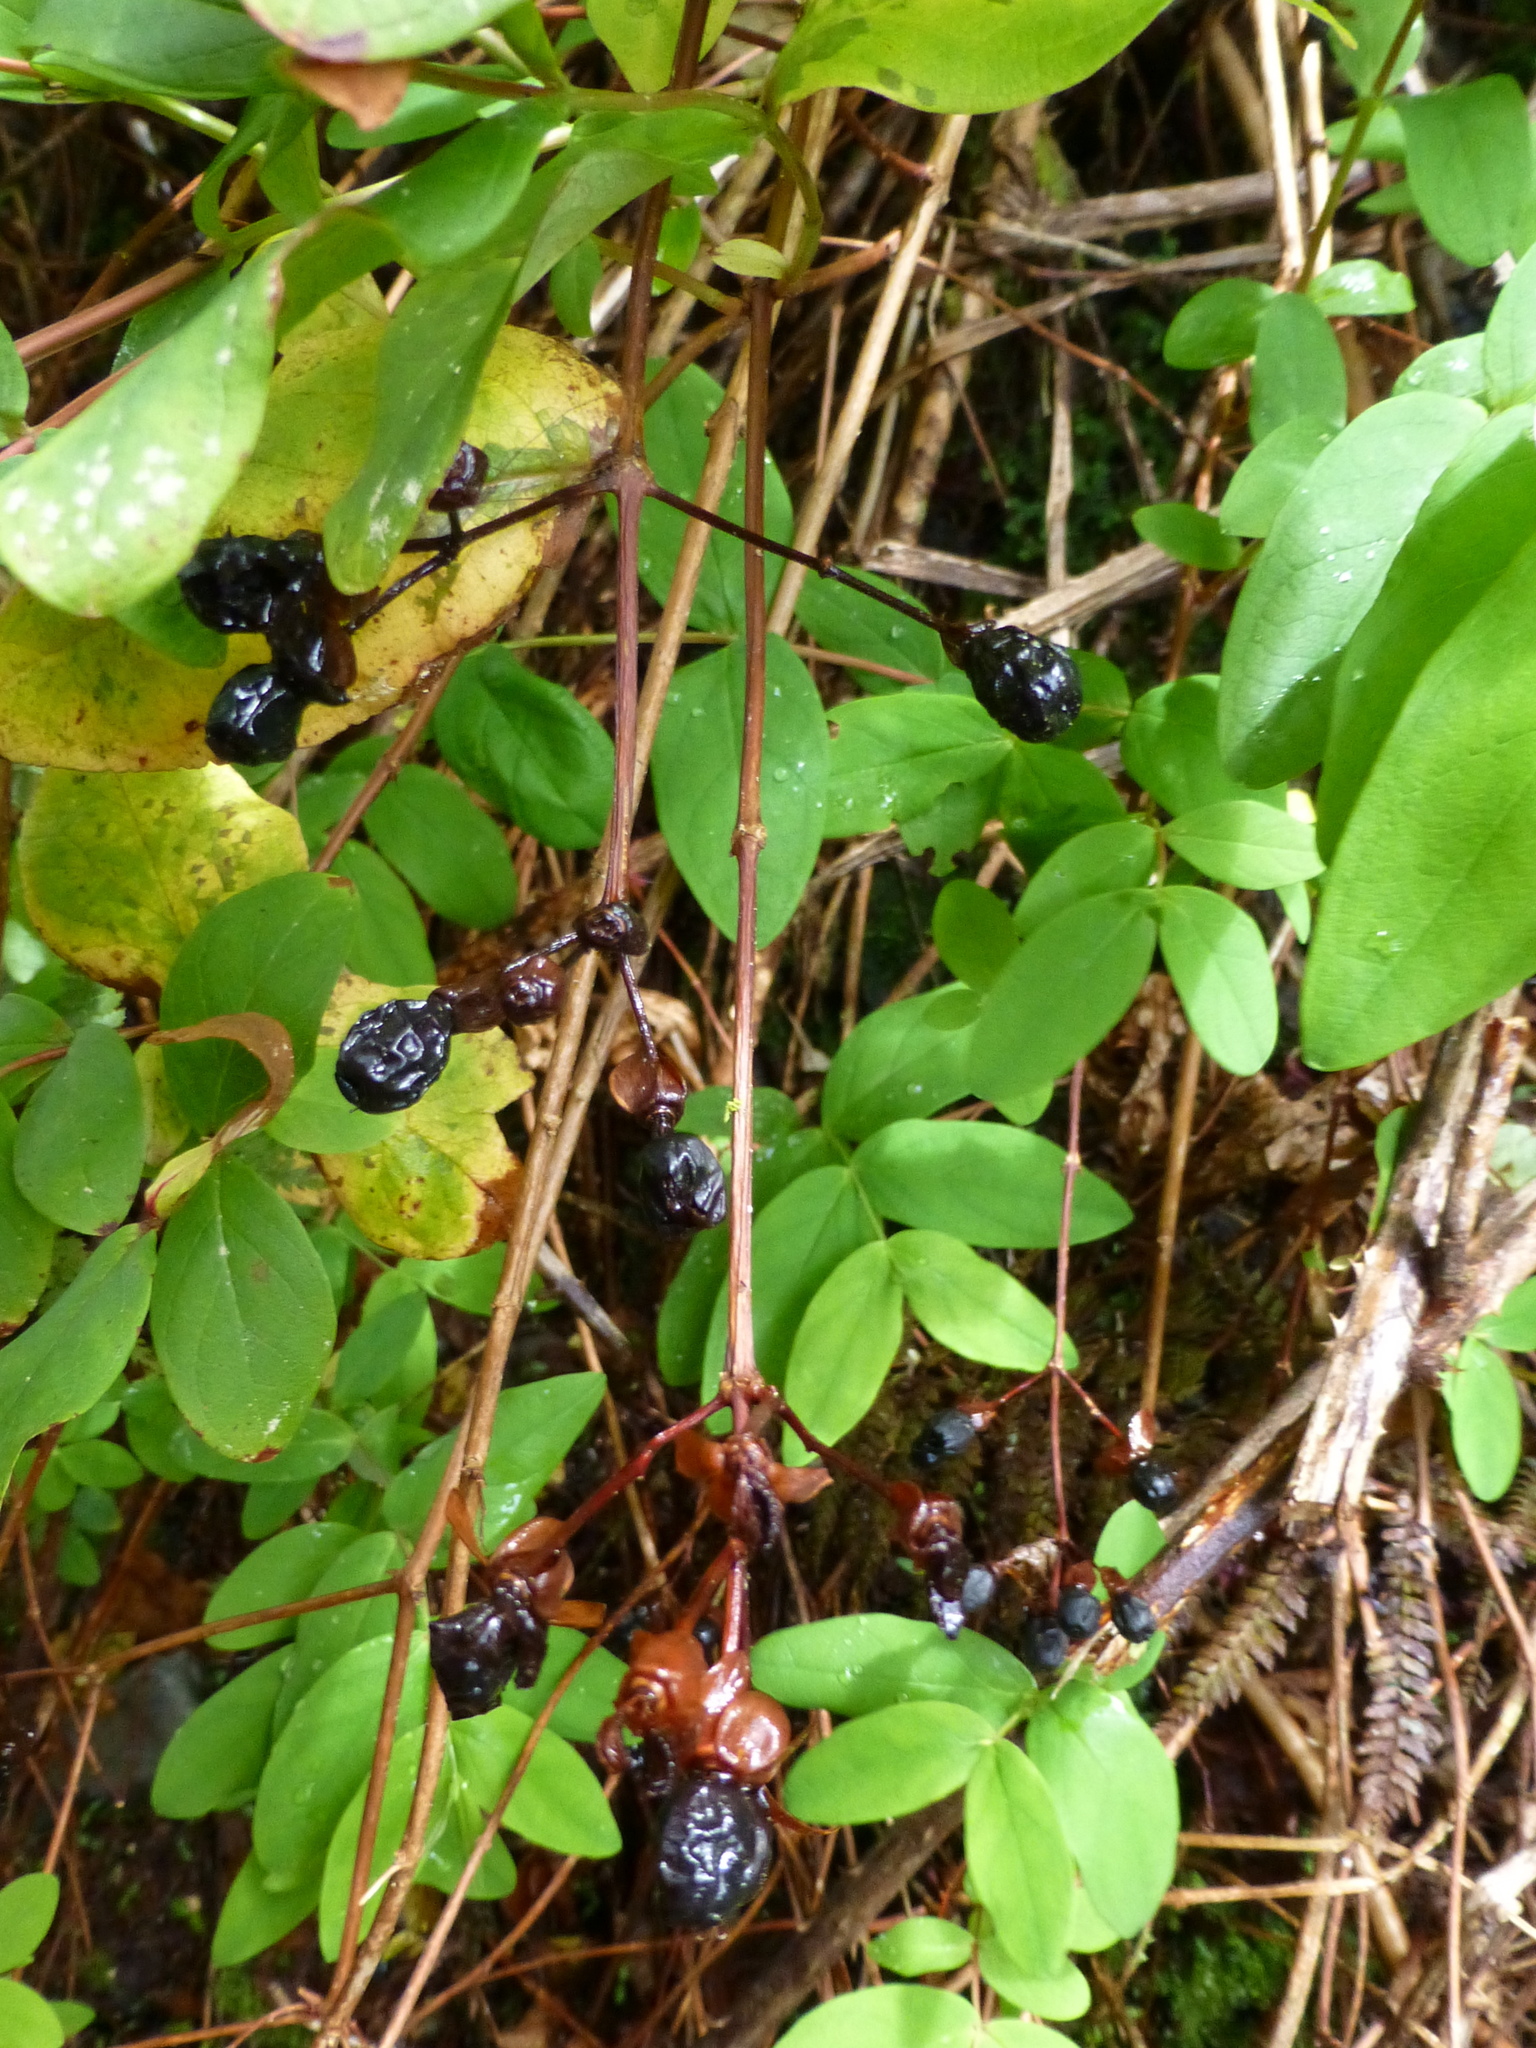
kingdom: Plantae
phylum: Tracheophyta
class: Magnoliopsida
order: Malpighiales
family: Hypericaceae
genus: Hypericum
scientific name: Hypericum androsaemum
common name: Sweet-amber
